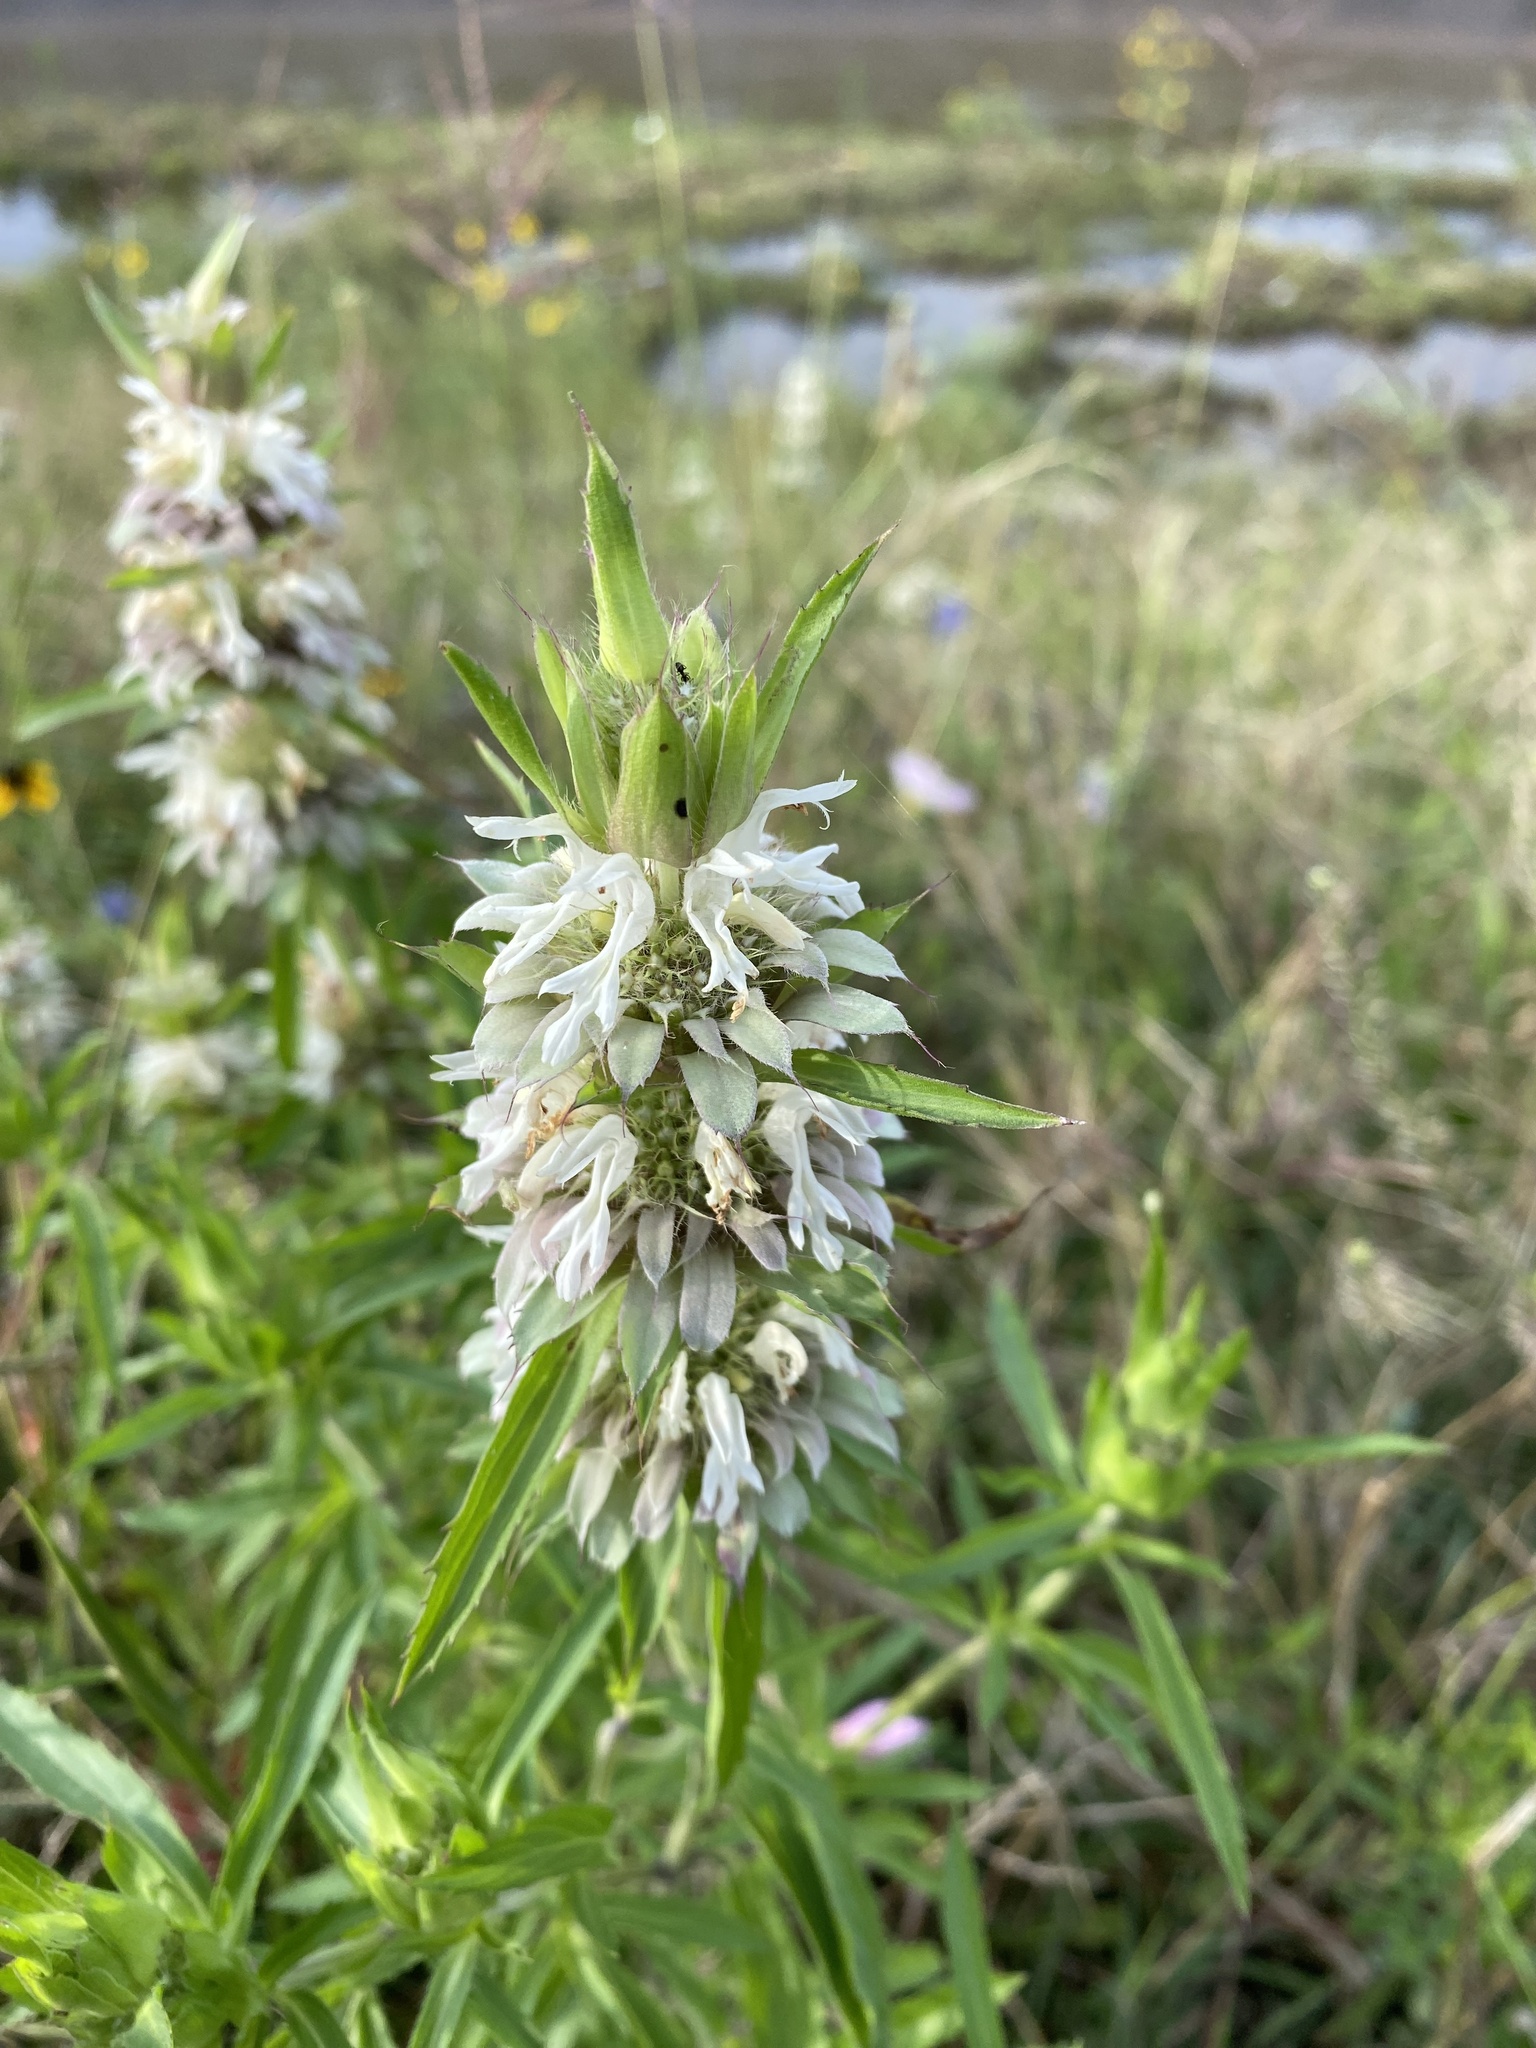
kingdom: Plantae
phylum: Tracheophyta
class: Magnoliopsida
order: Lamiales
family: Lamiaceae
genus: Monarda
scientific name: Monarda citriodora
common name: Lemon beebalm
